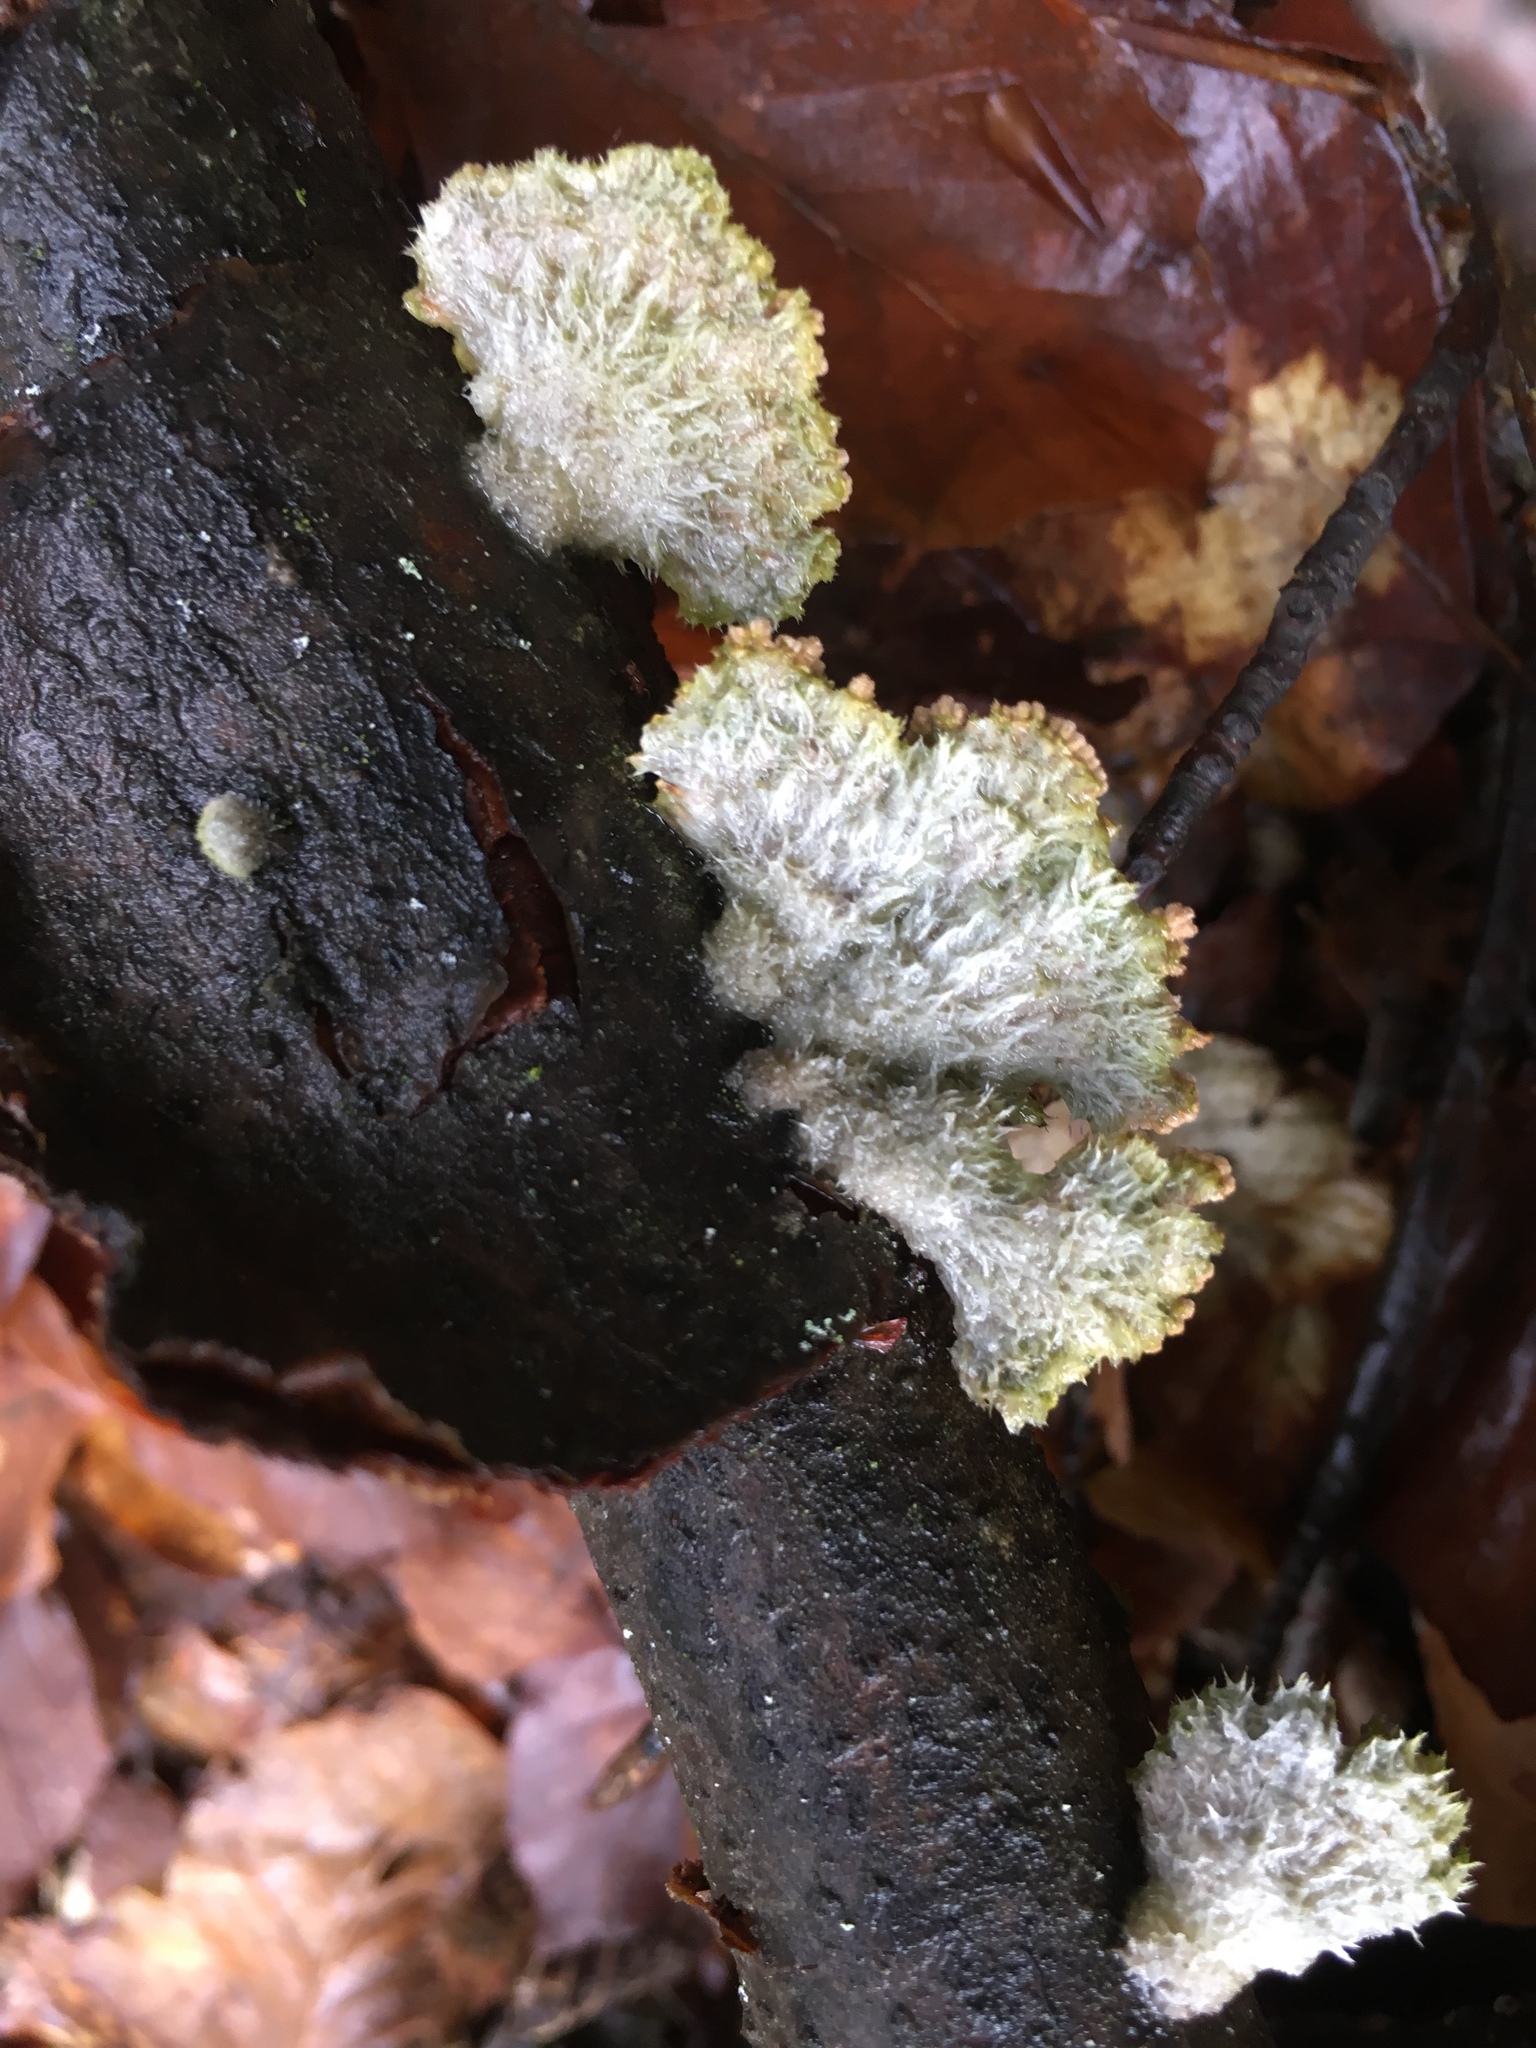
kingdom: Fungi
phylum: Basidiomycota
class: Agaricomycetes
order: Agaricales
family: Schizophyllaceae
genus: Schizophyllum
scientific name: Schizophyllum commune
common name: Common porecrust
